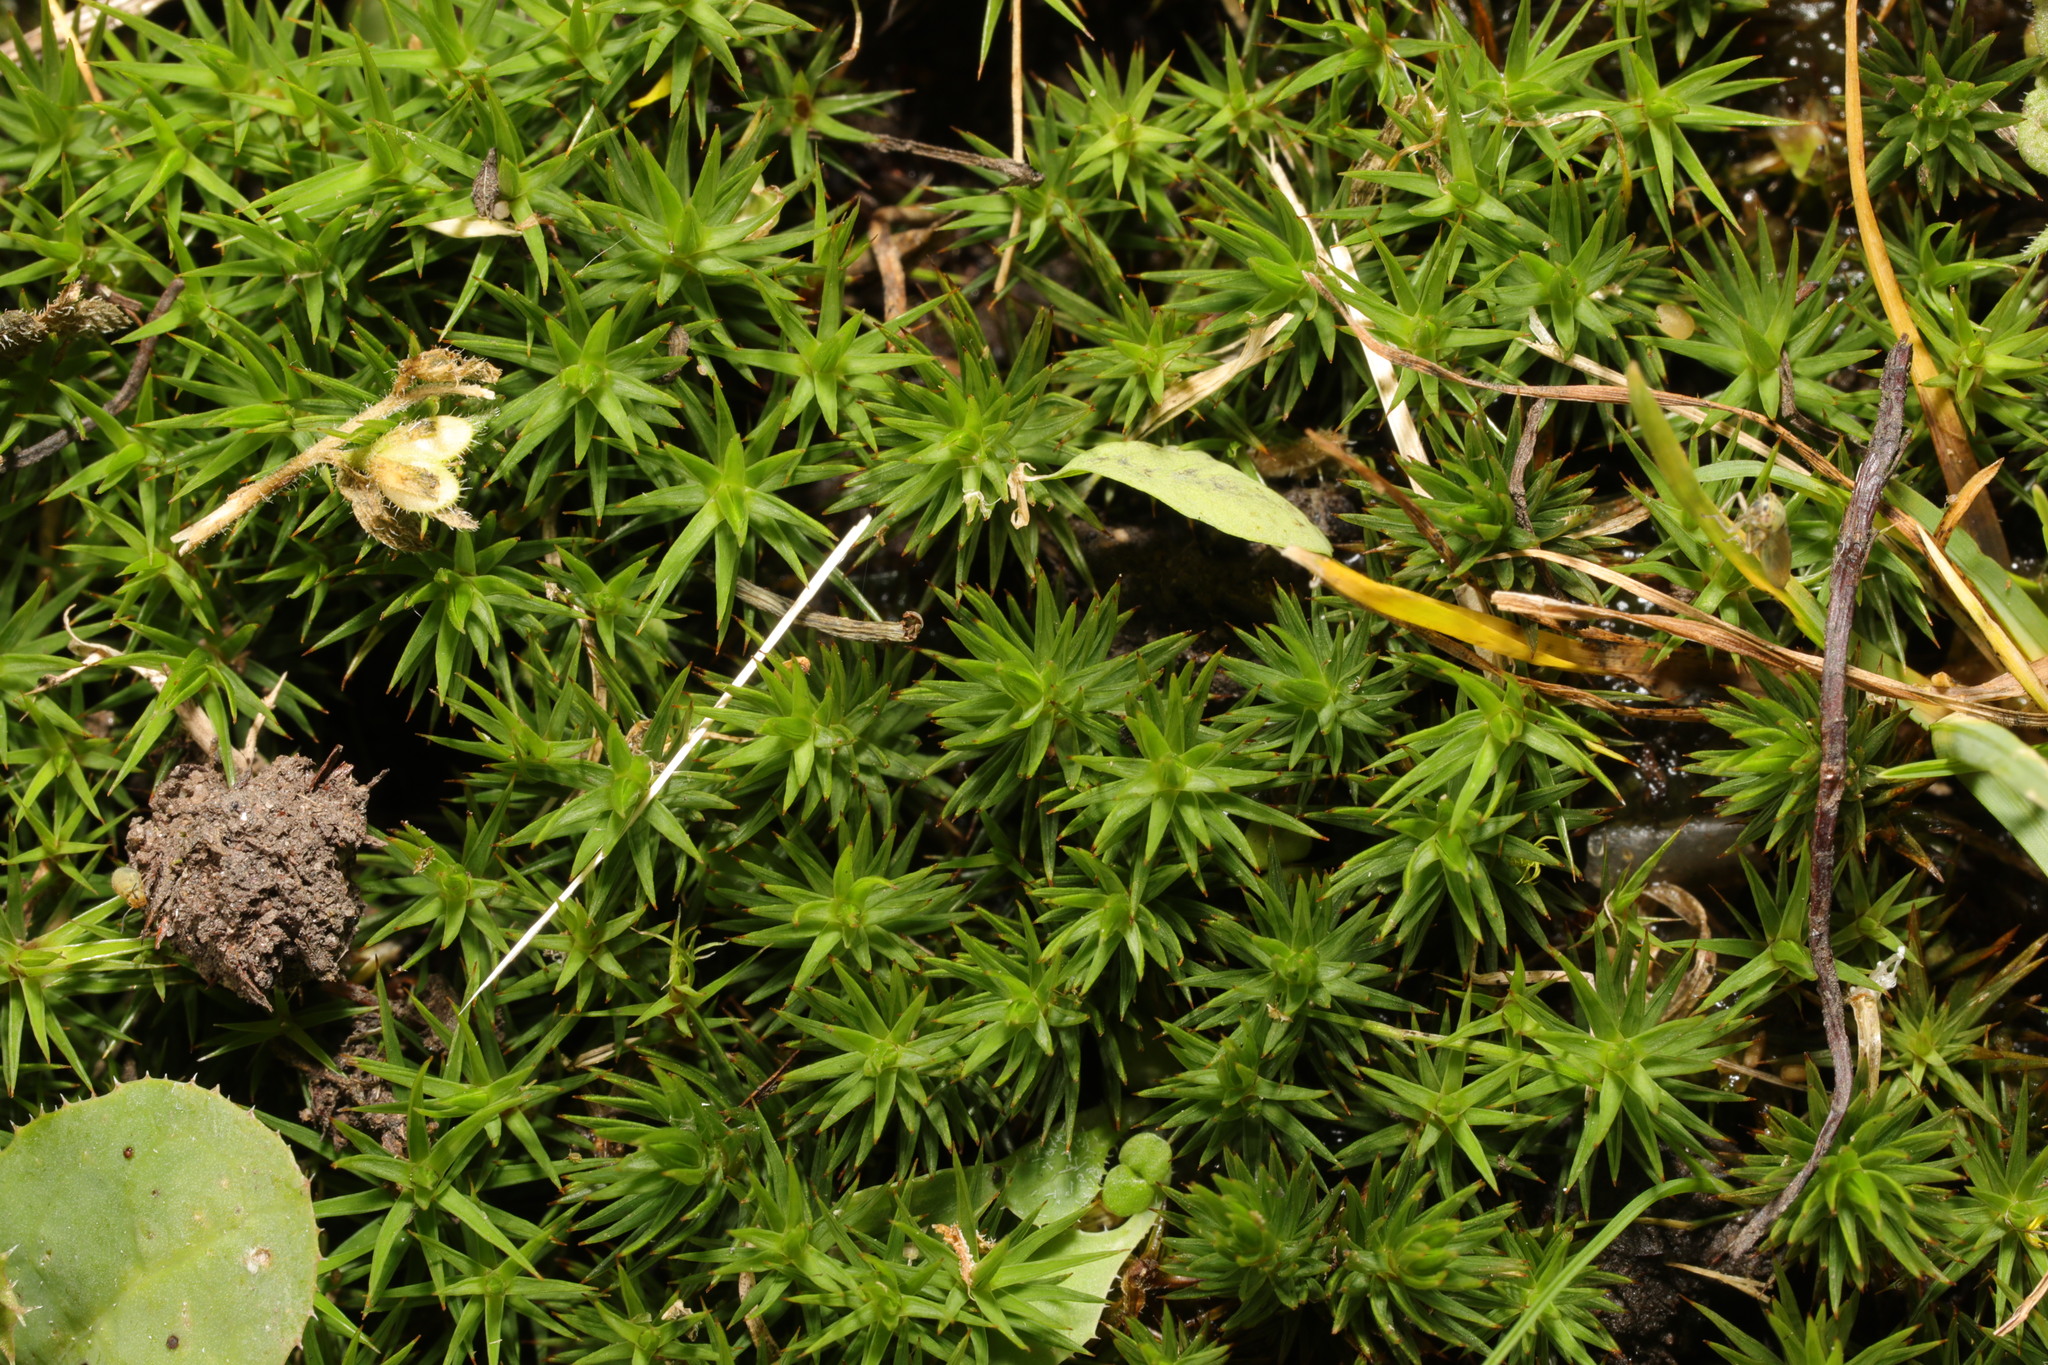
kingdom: Plantae
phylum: Bryophyta
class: Polytrichopsida
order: Polytrichales
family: Polytrichaceae
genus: Polytrichum
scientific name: Polytrichum juniperinum
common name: Juniper haircap moss
